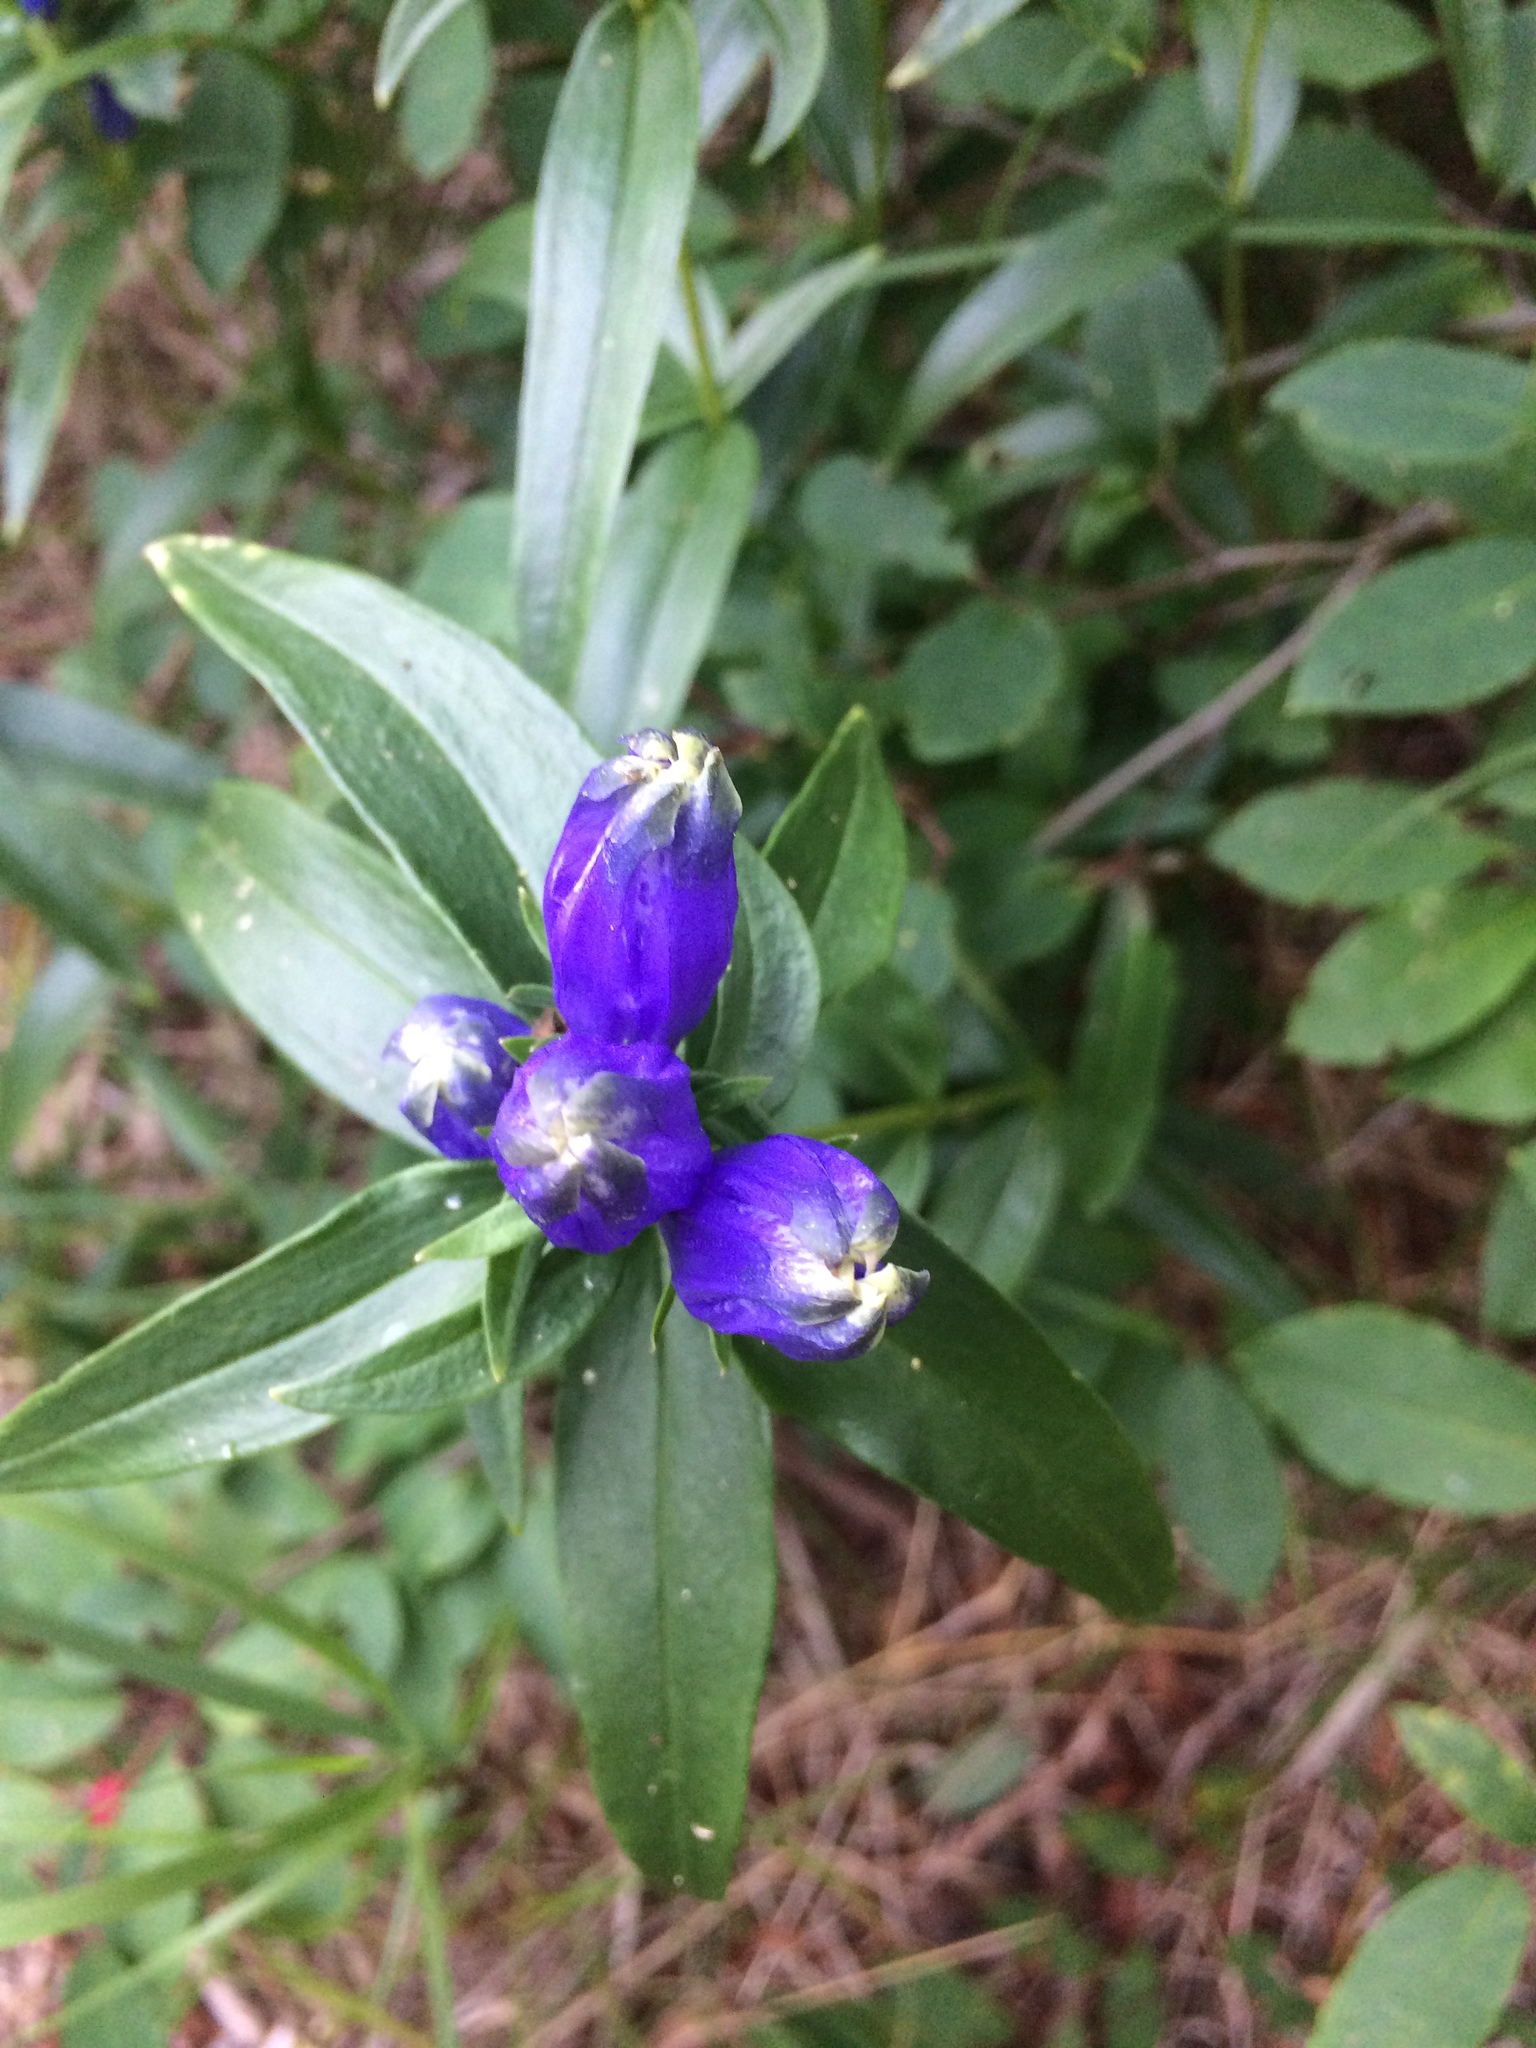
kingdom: Plantae
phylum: Tracheophyta
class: Magnoliopsida
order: Gentianales
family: Gentianaceae
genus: Gentiana
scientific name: Gentiana linearis
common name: Bastard gentian
